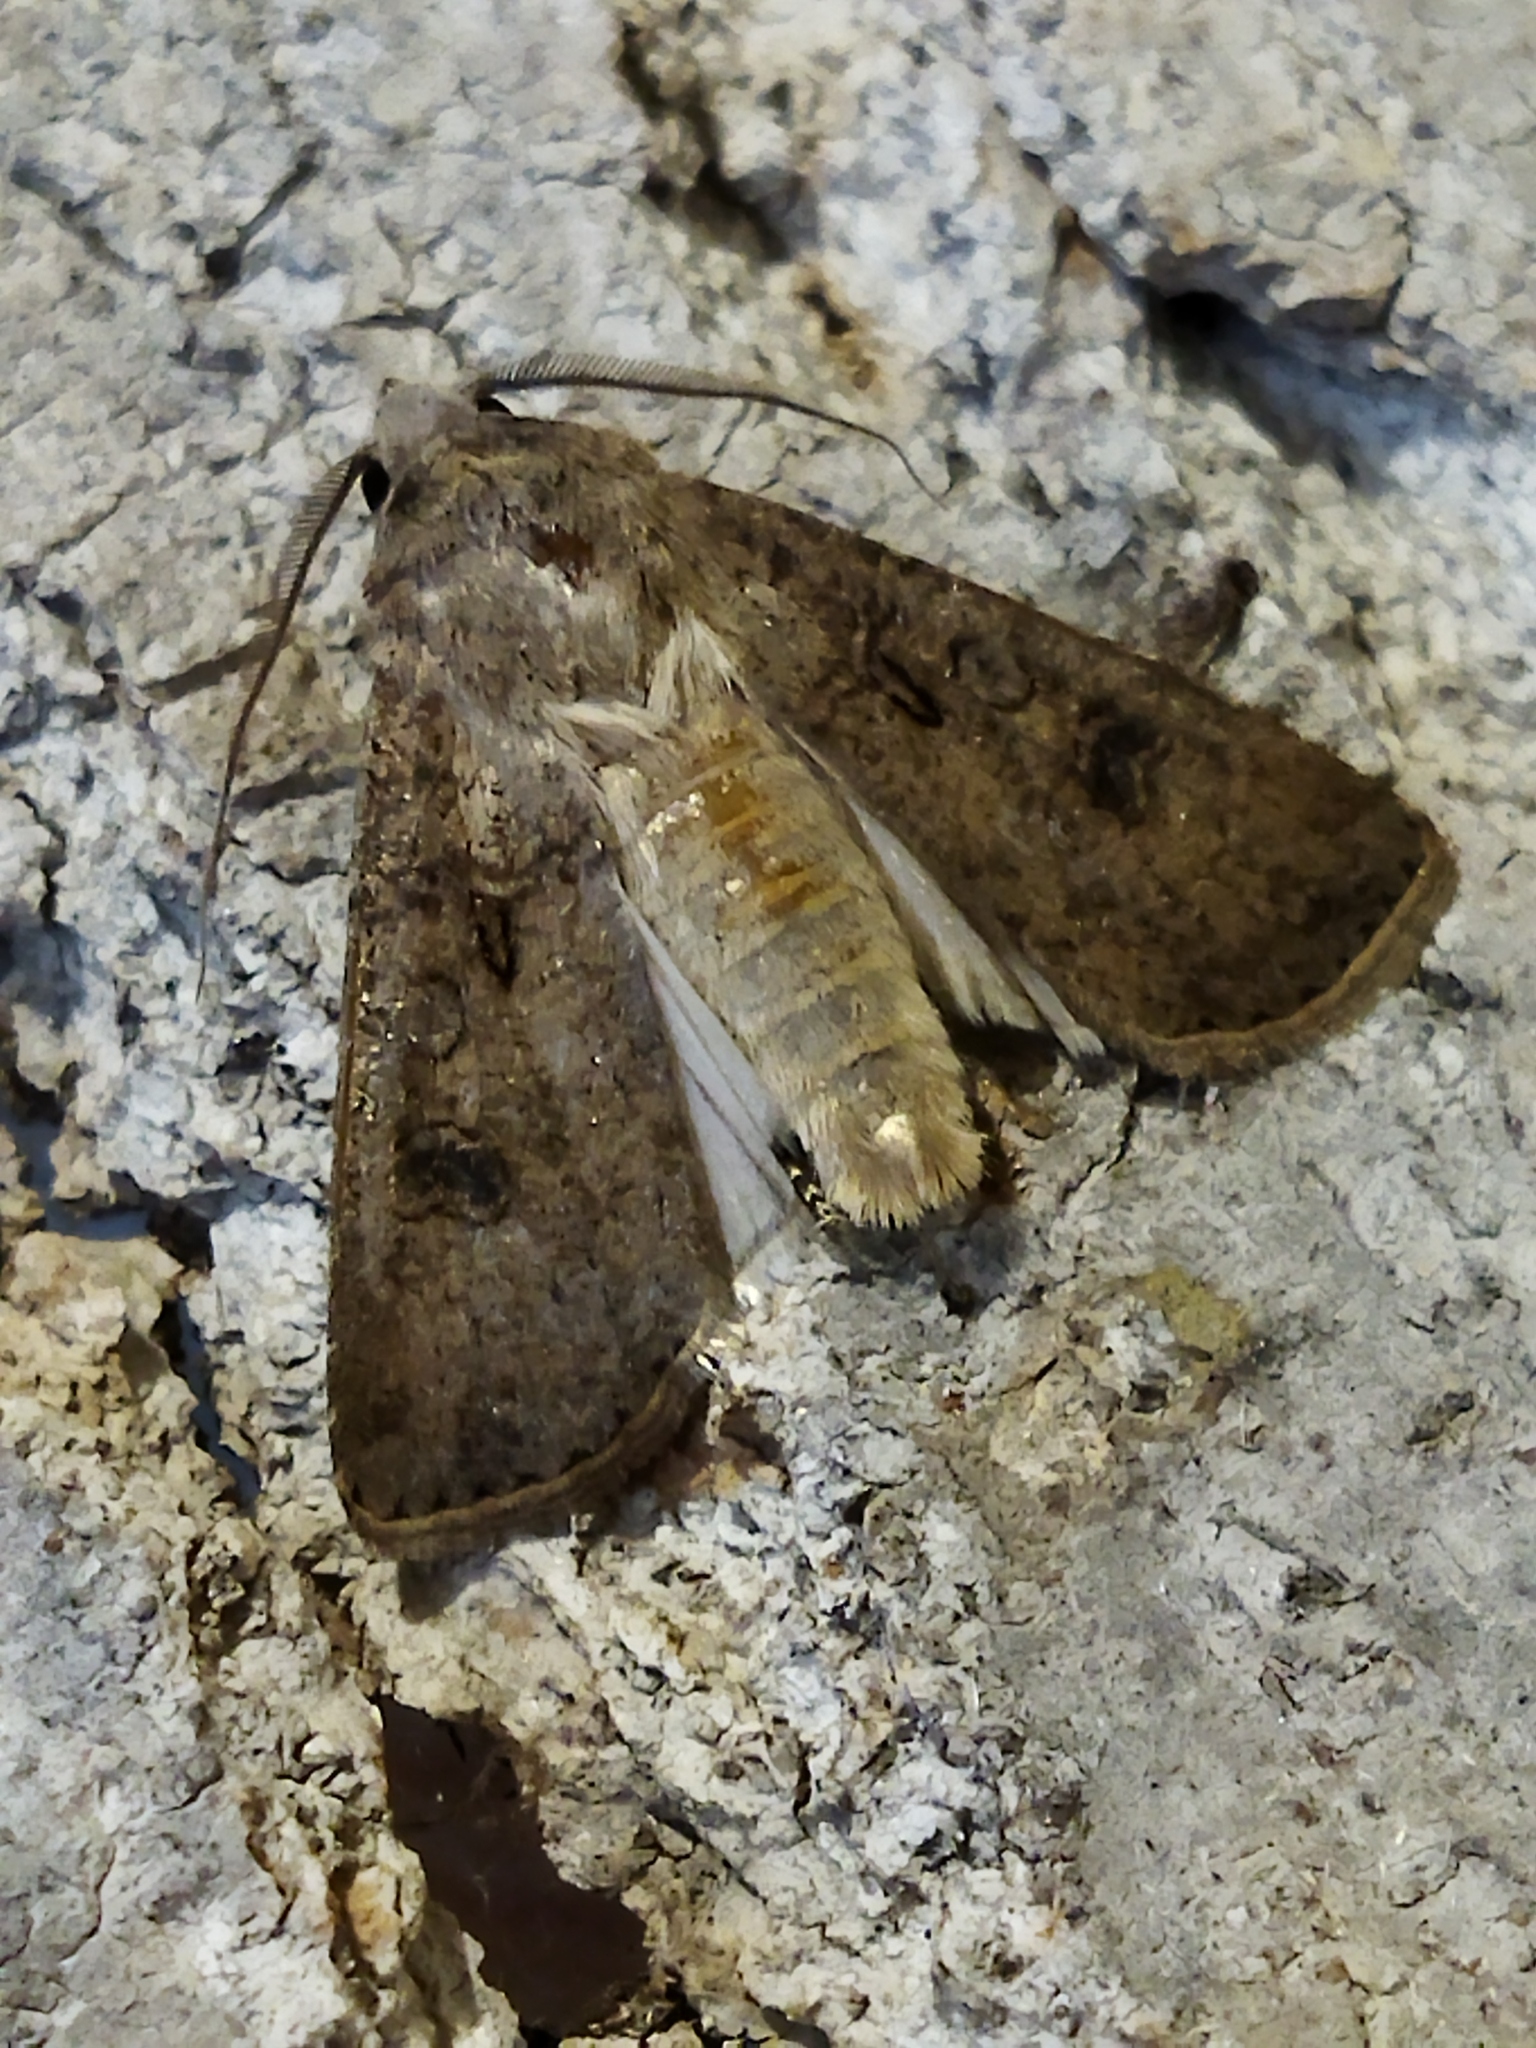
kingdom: Animalia
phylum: Arthropoda
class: Insecta
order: Lepidoptera
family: Noctuidae
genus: Agrotis
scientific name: Agrotis segetum
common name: Turnip moth
